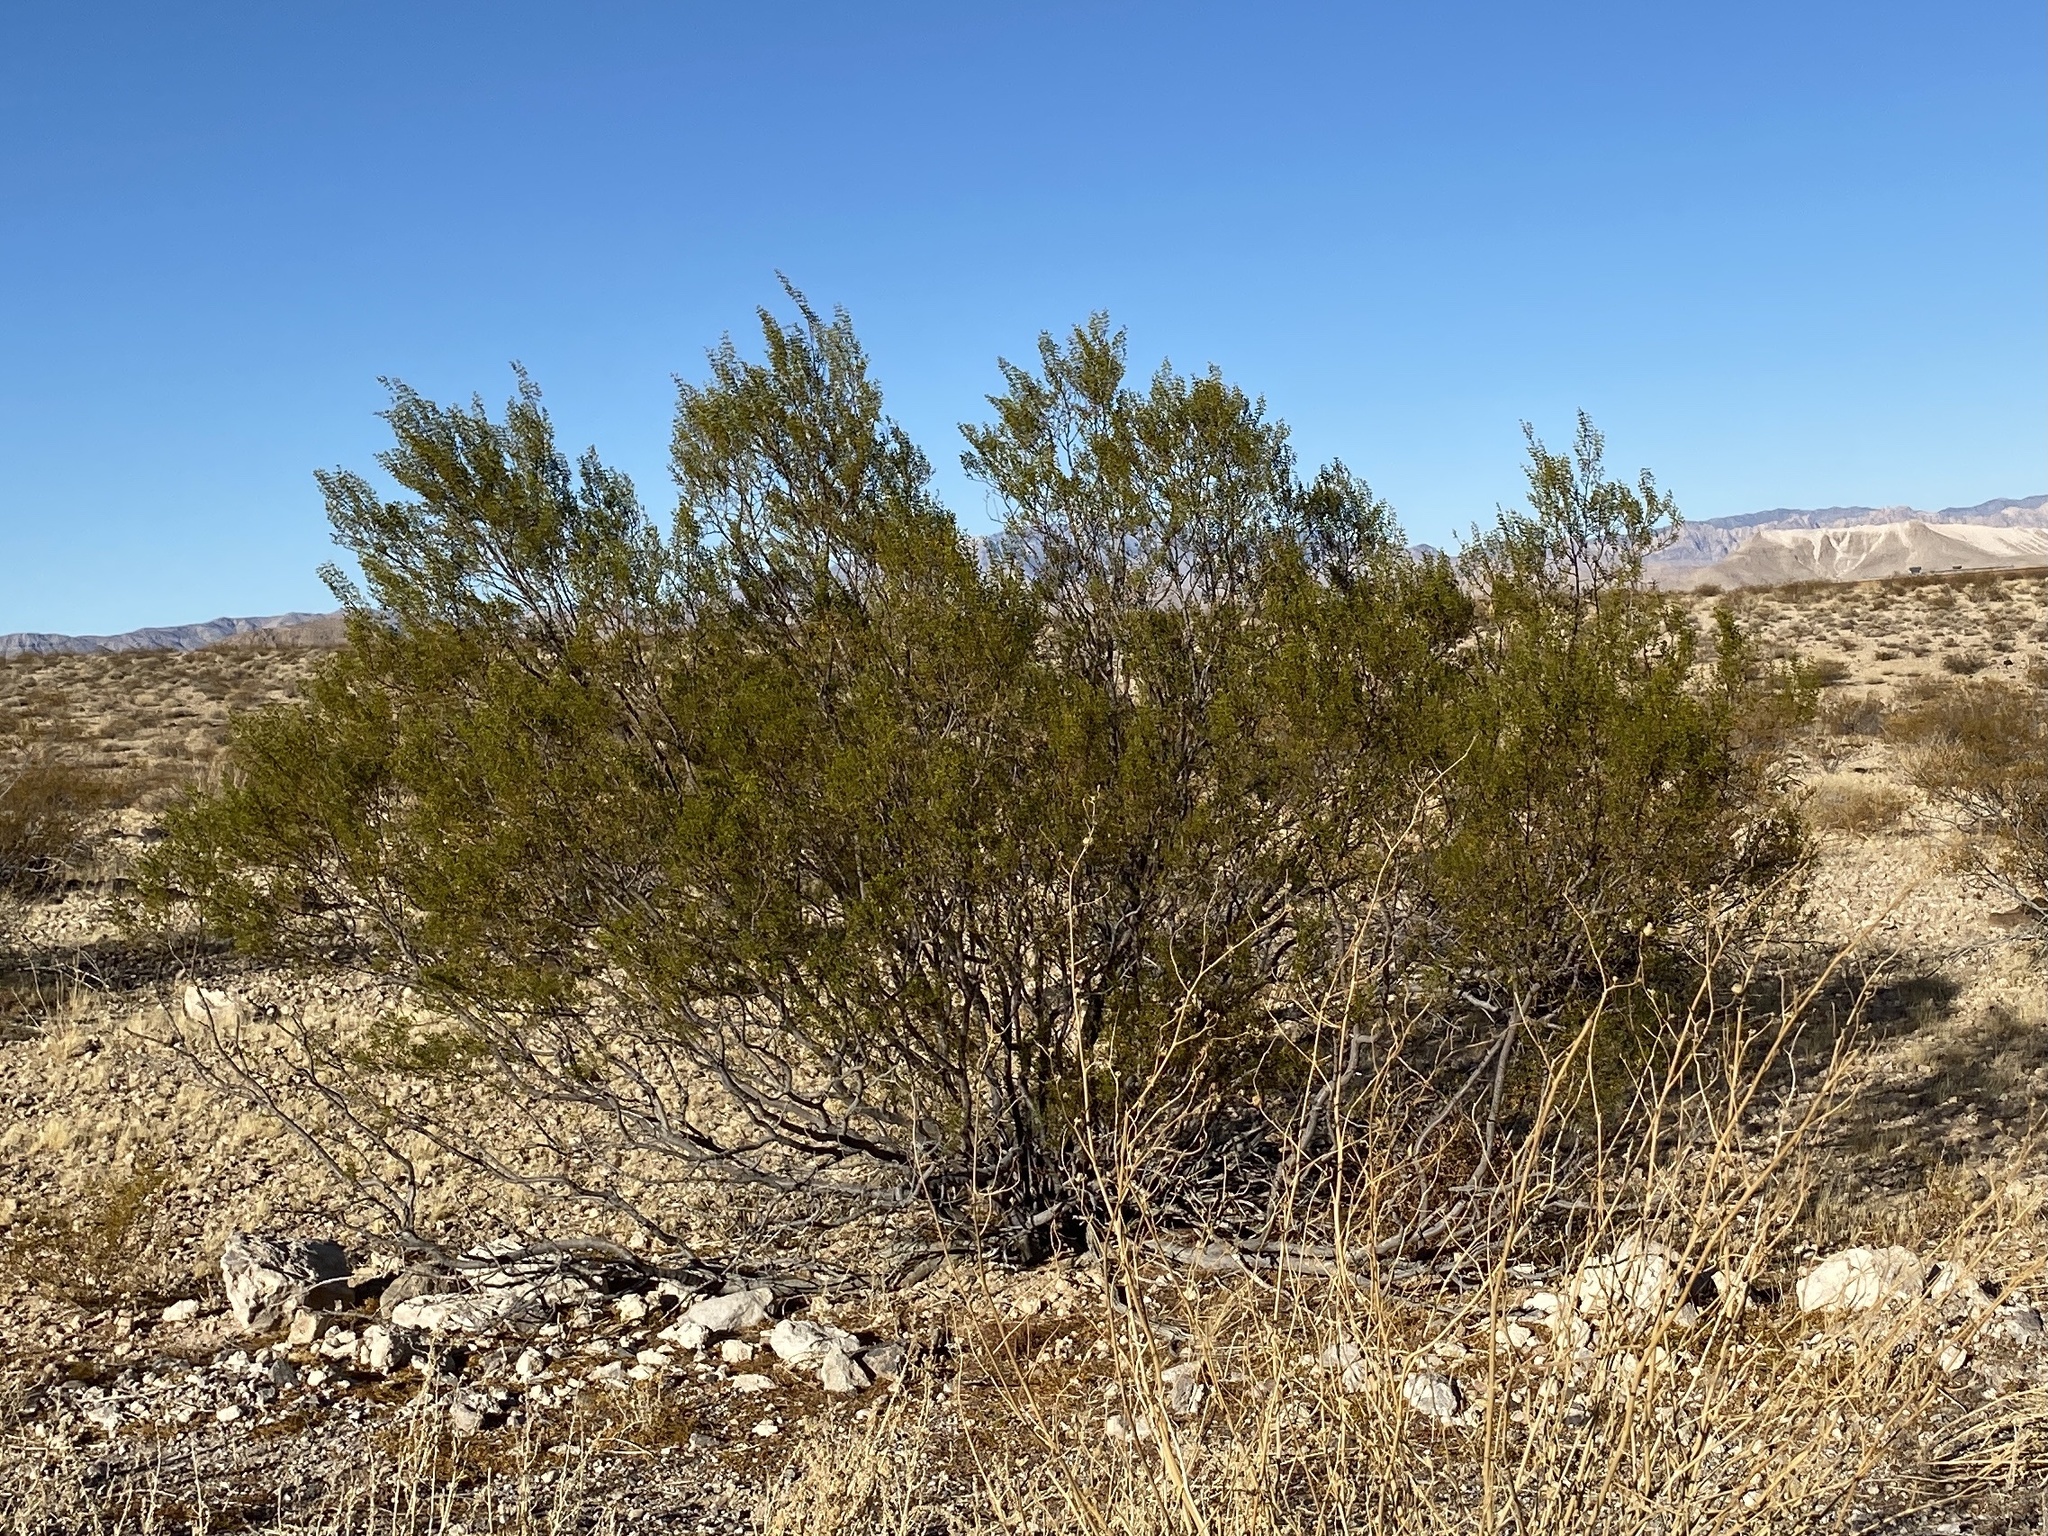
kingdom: Plantae
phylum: Tracheophyta
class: Magnoliopsida
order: Zygophyllales
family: Zygophyllaceae
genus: Larrea
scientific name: Larrea tridentata
